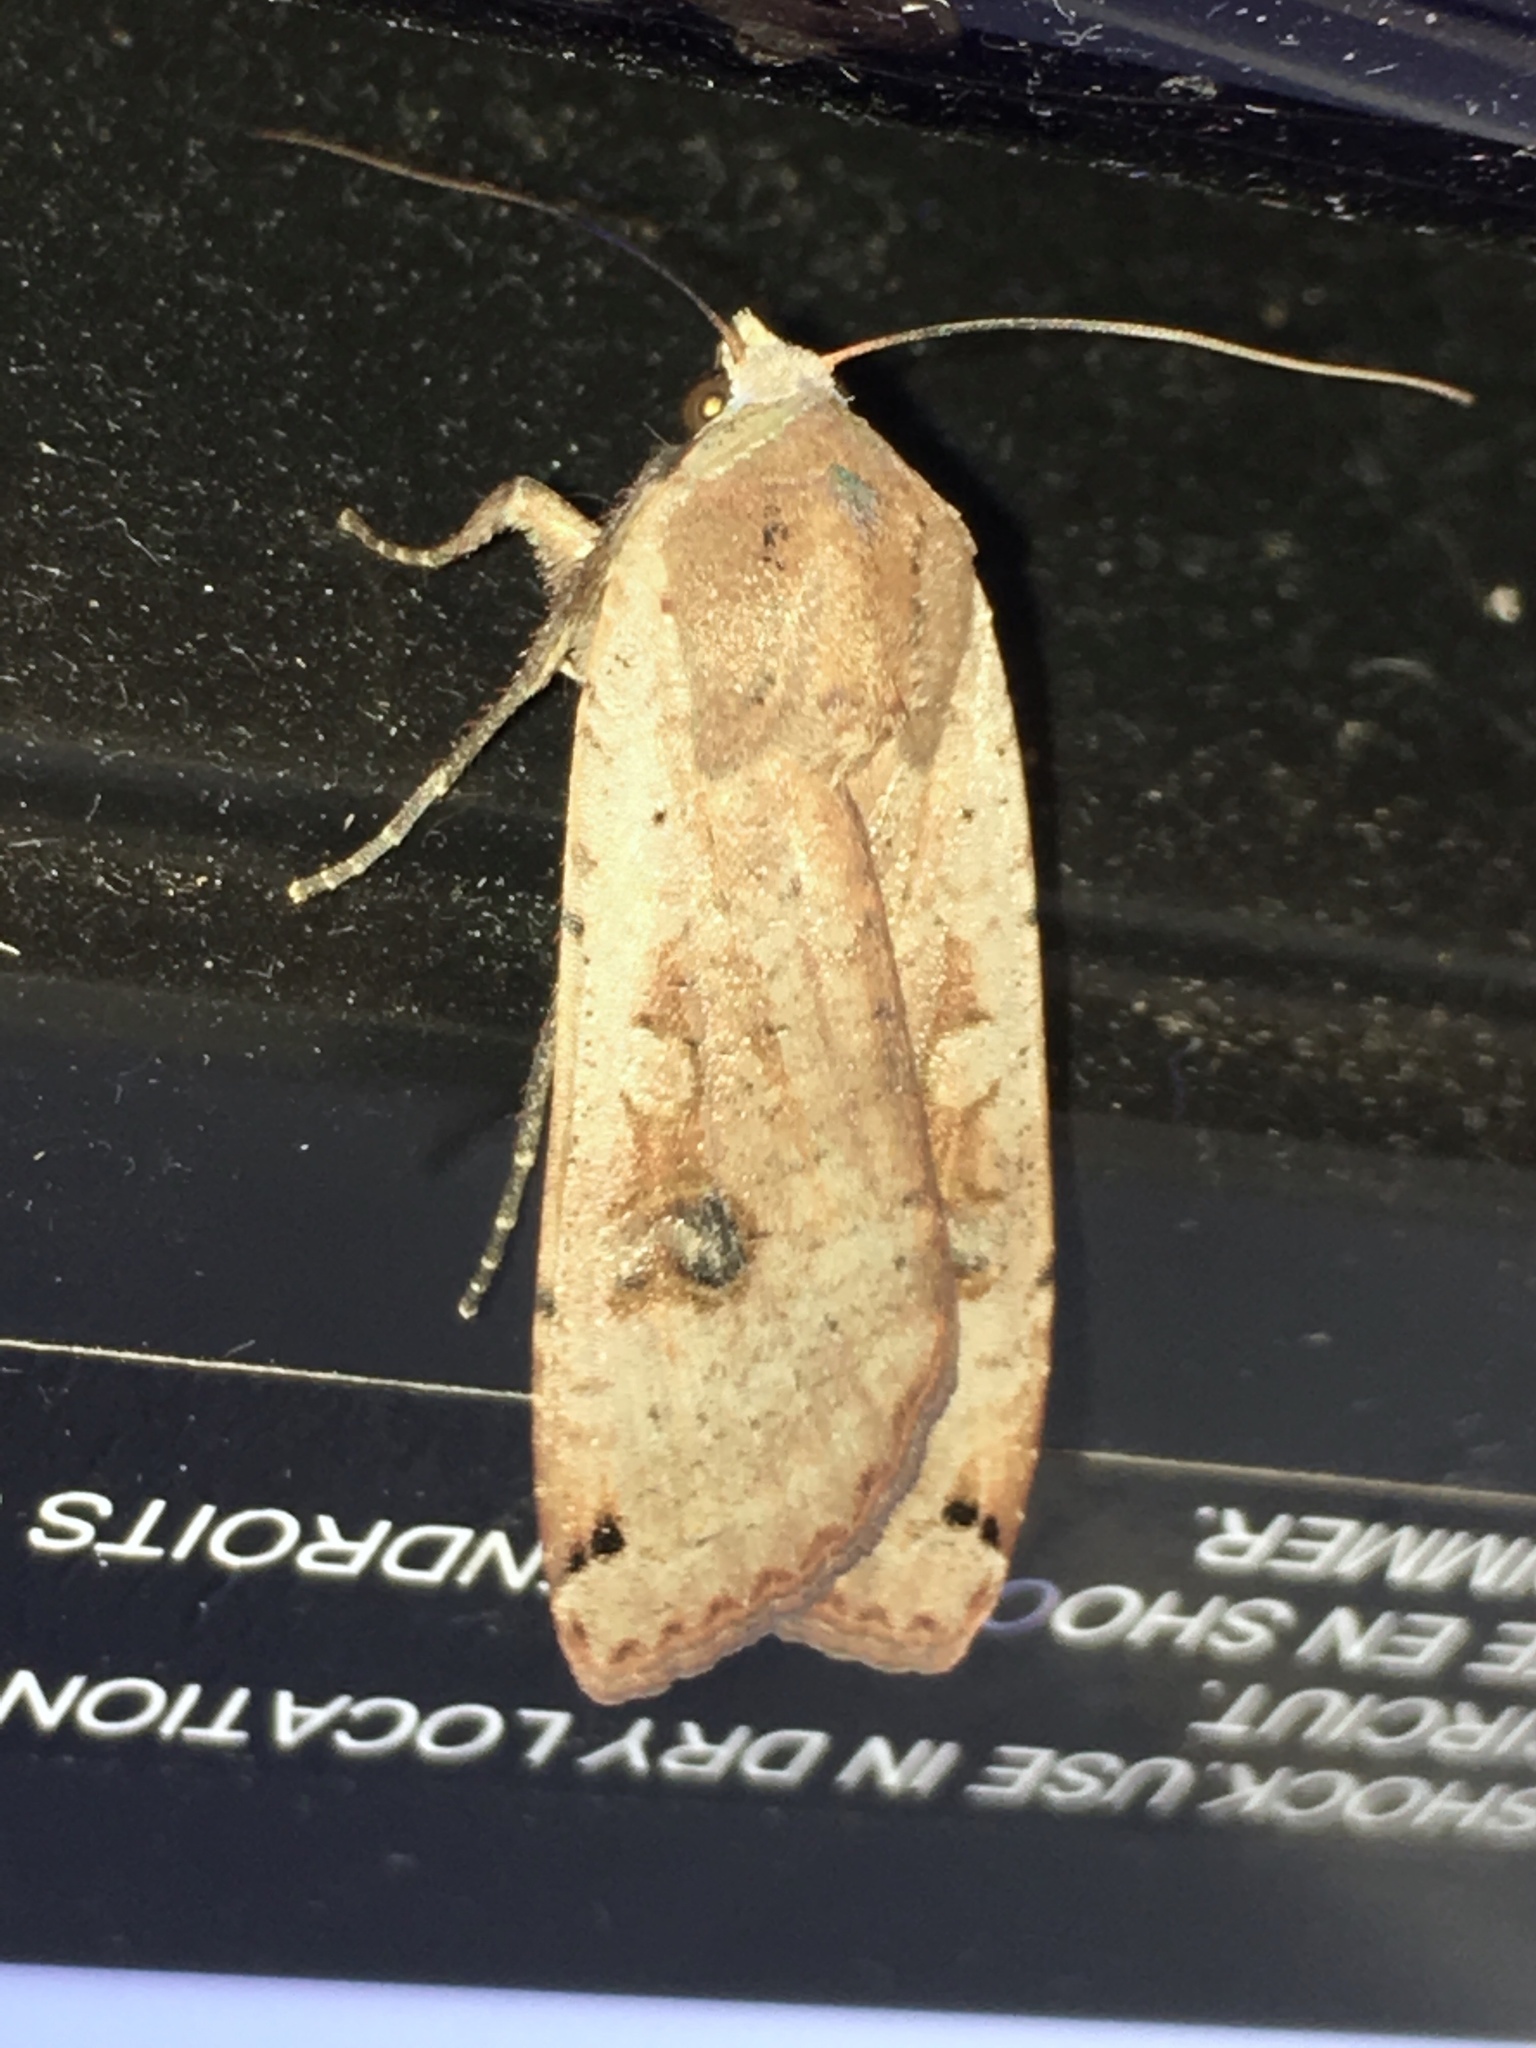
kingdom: Animalia
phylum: Arthropoda
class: Insecta
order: Lepidoptera
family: Noctuidae
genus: Noctua
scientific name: Noctua pronuba
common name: Large yellow underwing
